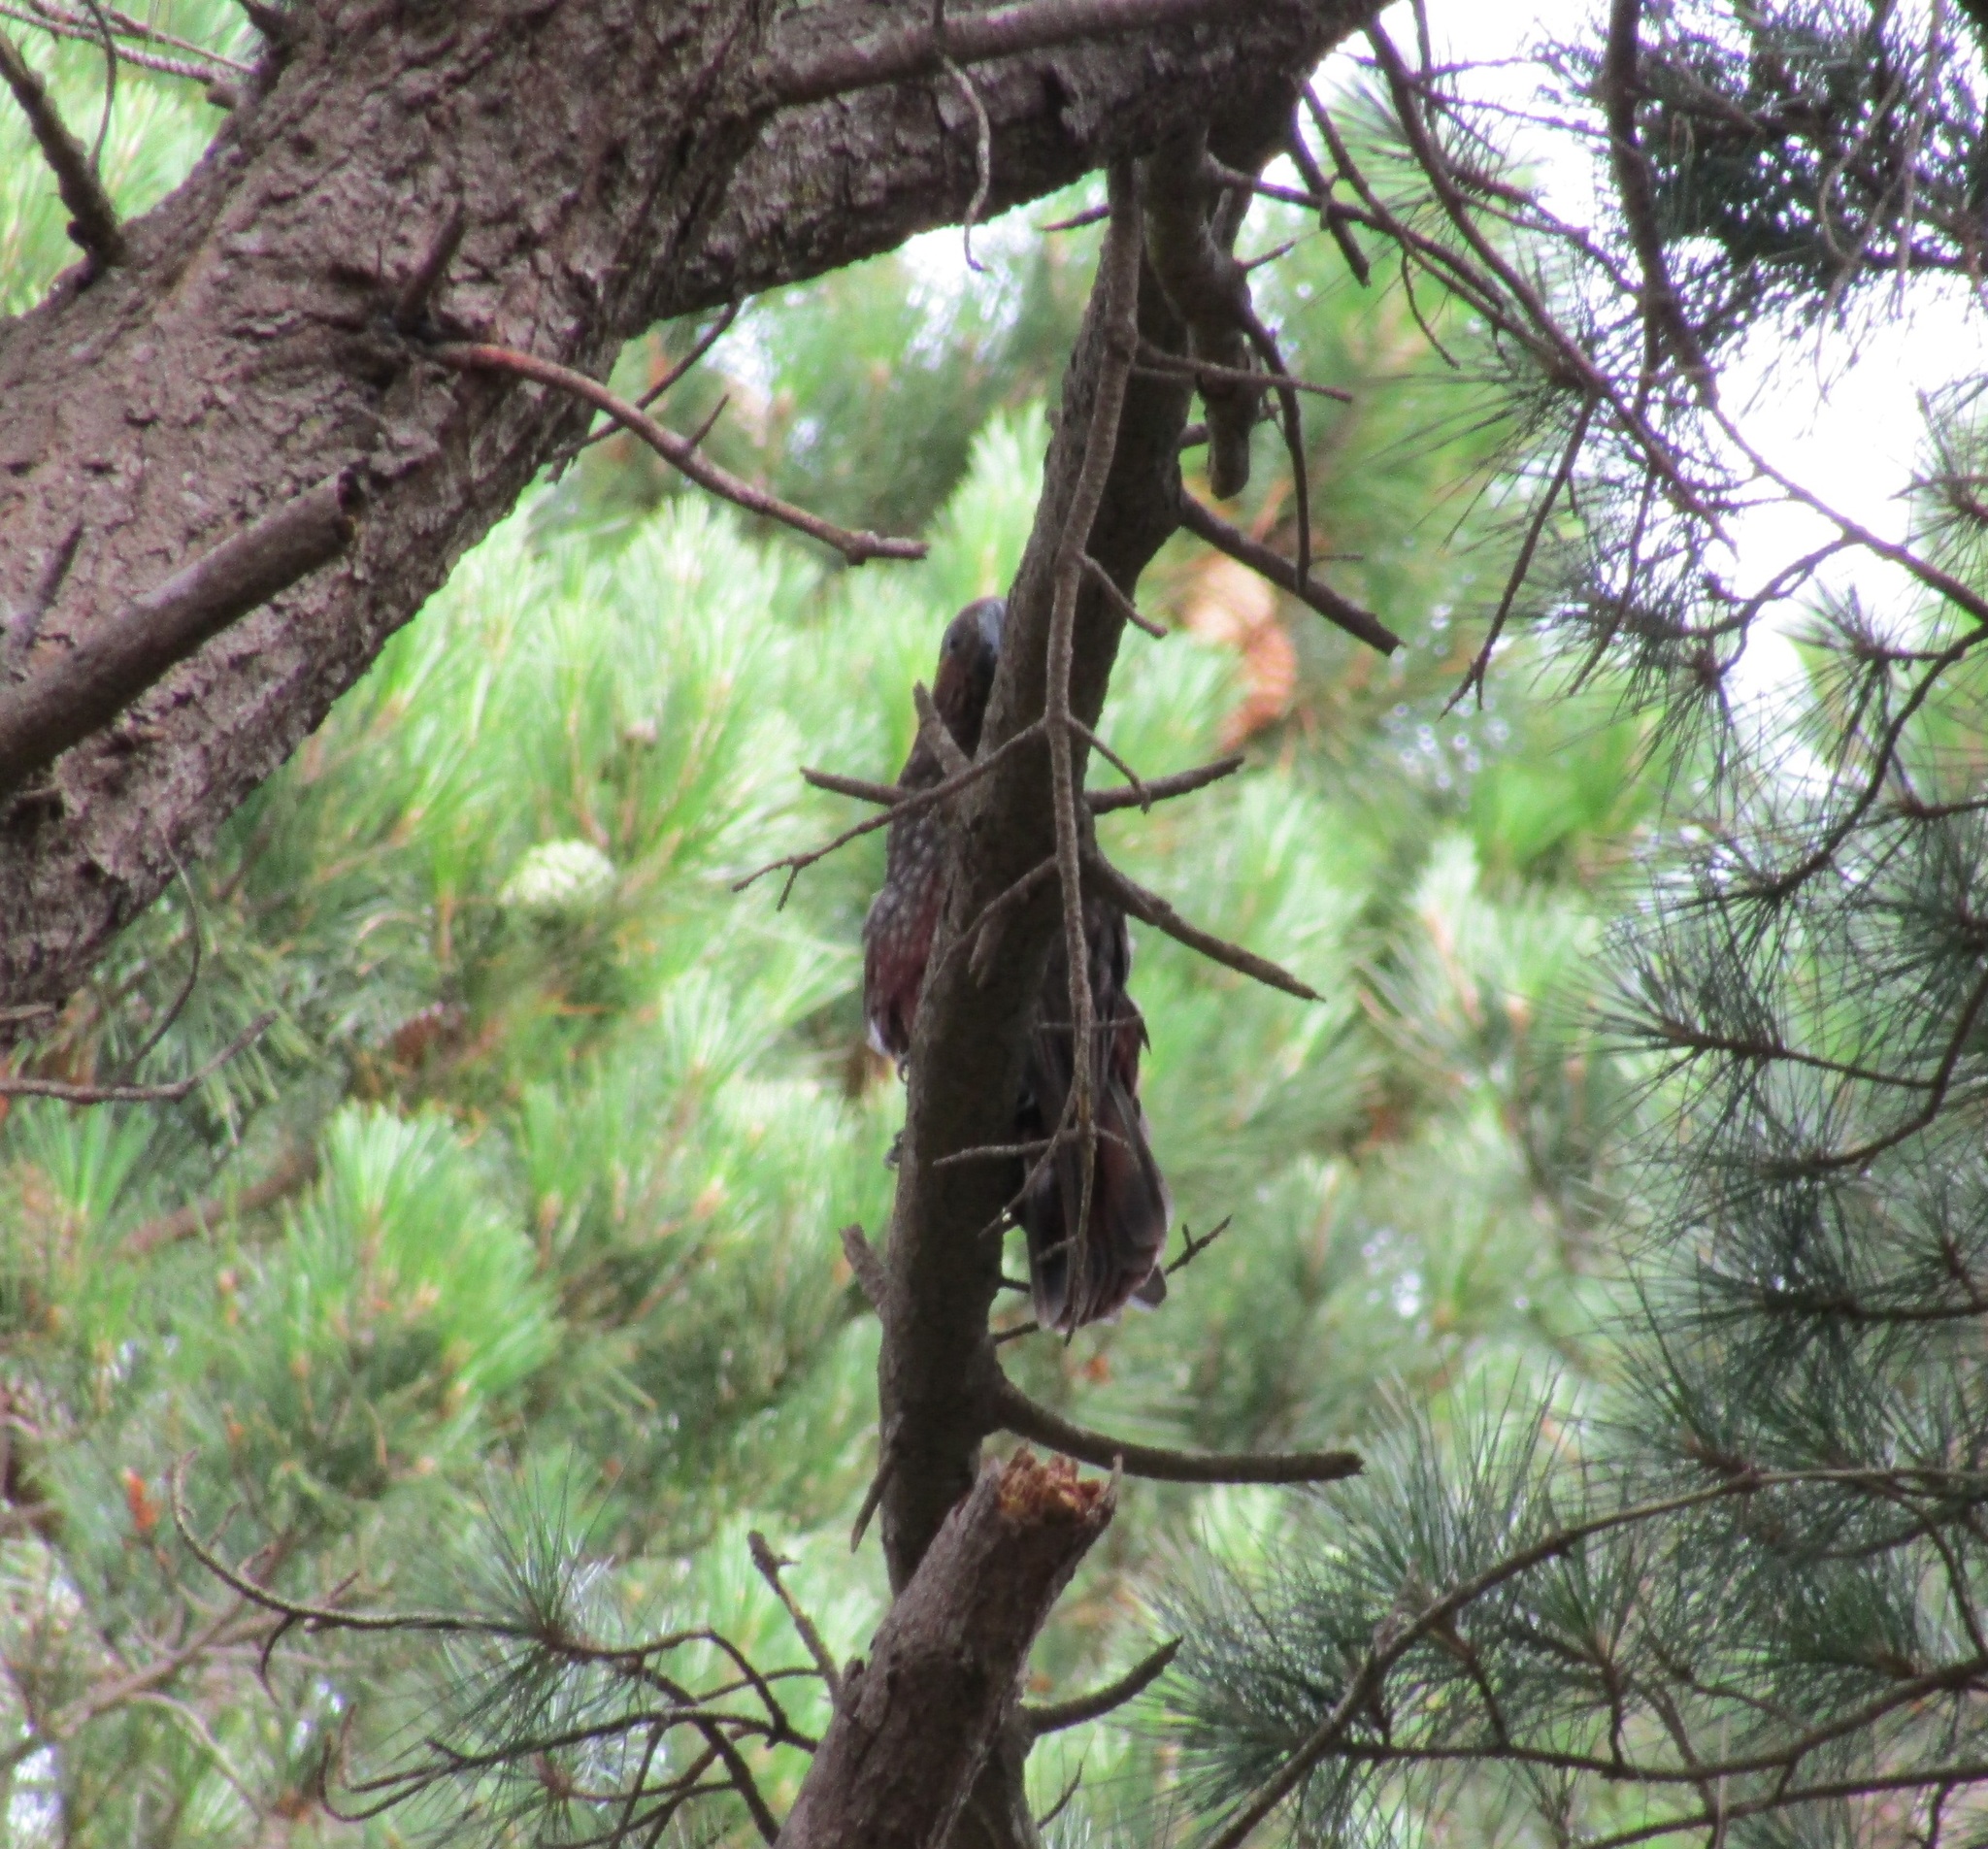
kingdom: Animalia
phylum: Chordata
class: Aves
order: Psittaciformes
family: Psittacidae
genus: Nestor
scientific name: Nestor meridionalis
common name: New zealand kaka
